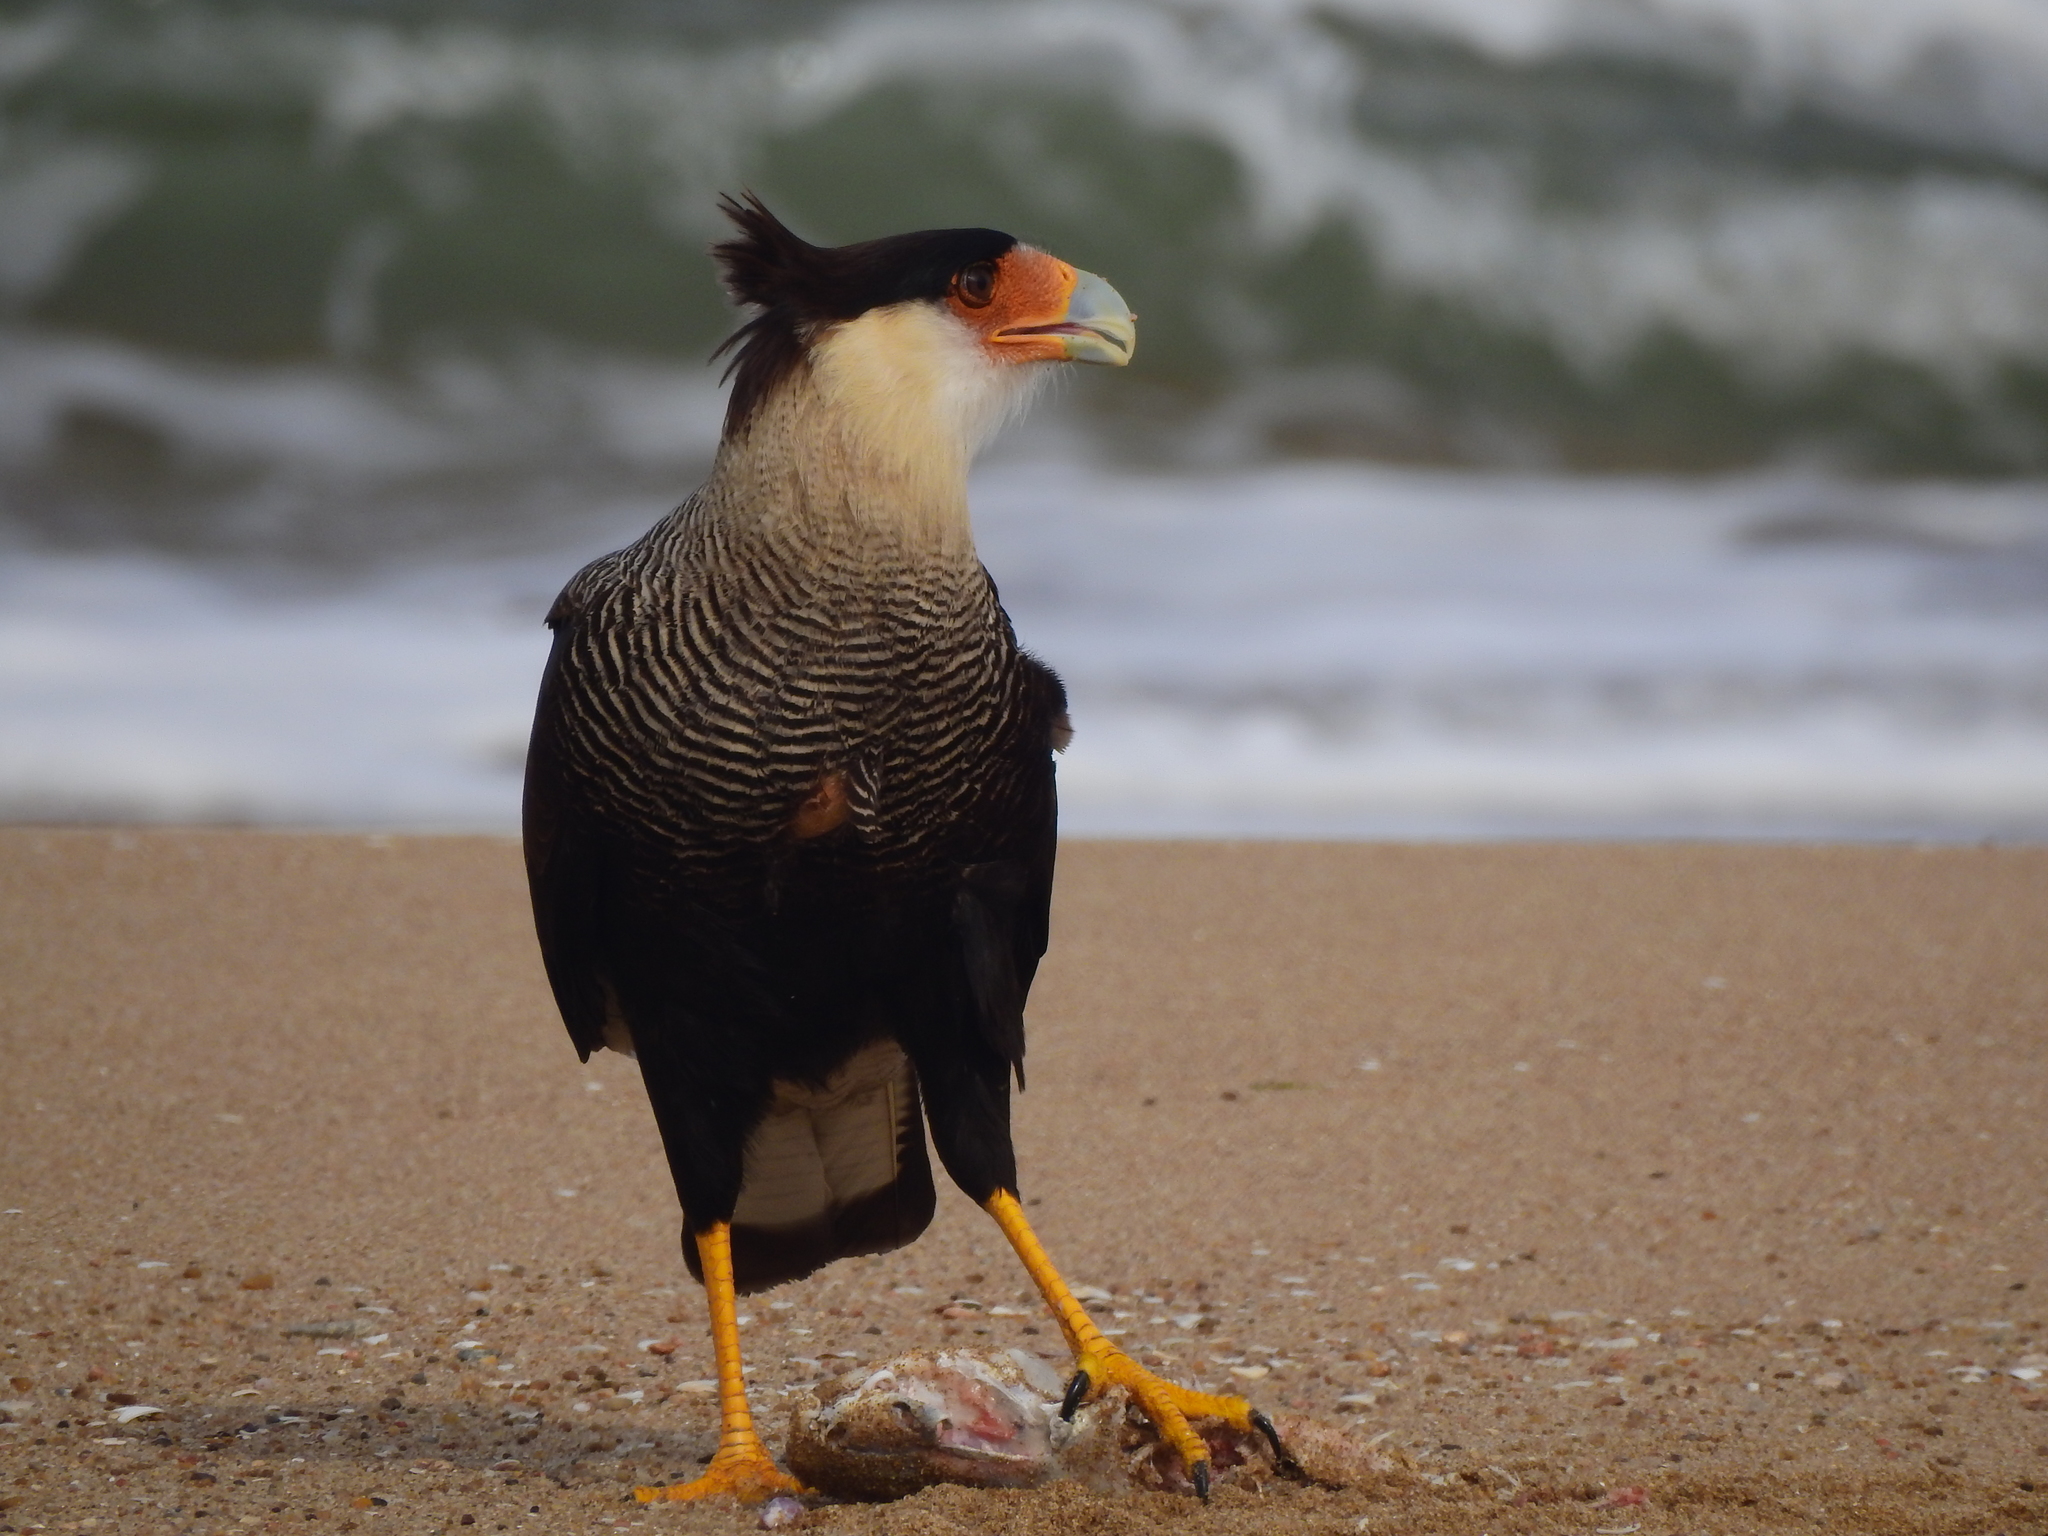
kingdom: Animalia
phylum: Chordata
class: Aves
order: Falconiformes
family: Falconidae
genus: Caracara
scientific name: Caracara plancus
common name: Southern caracara
